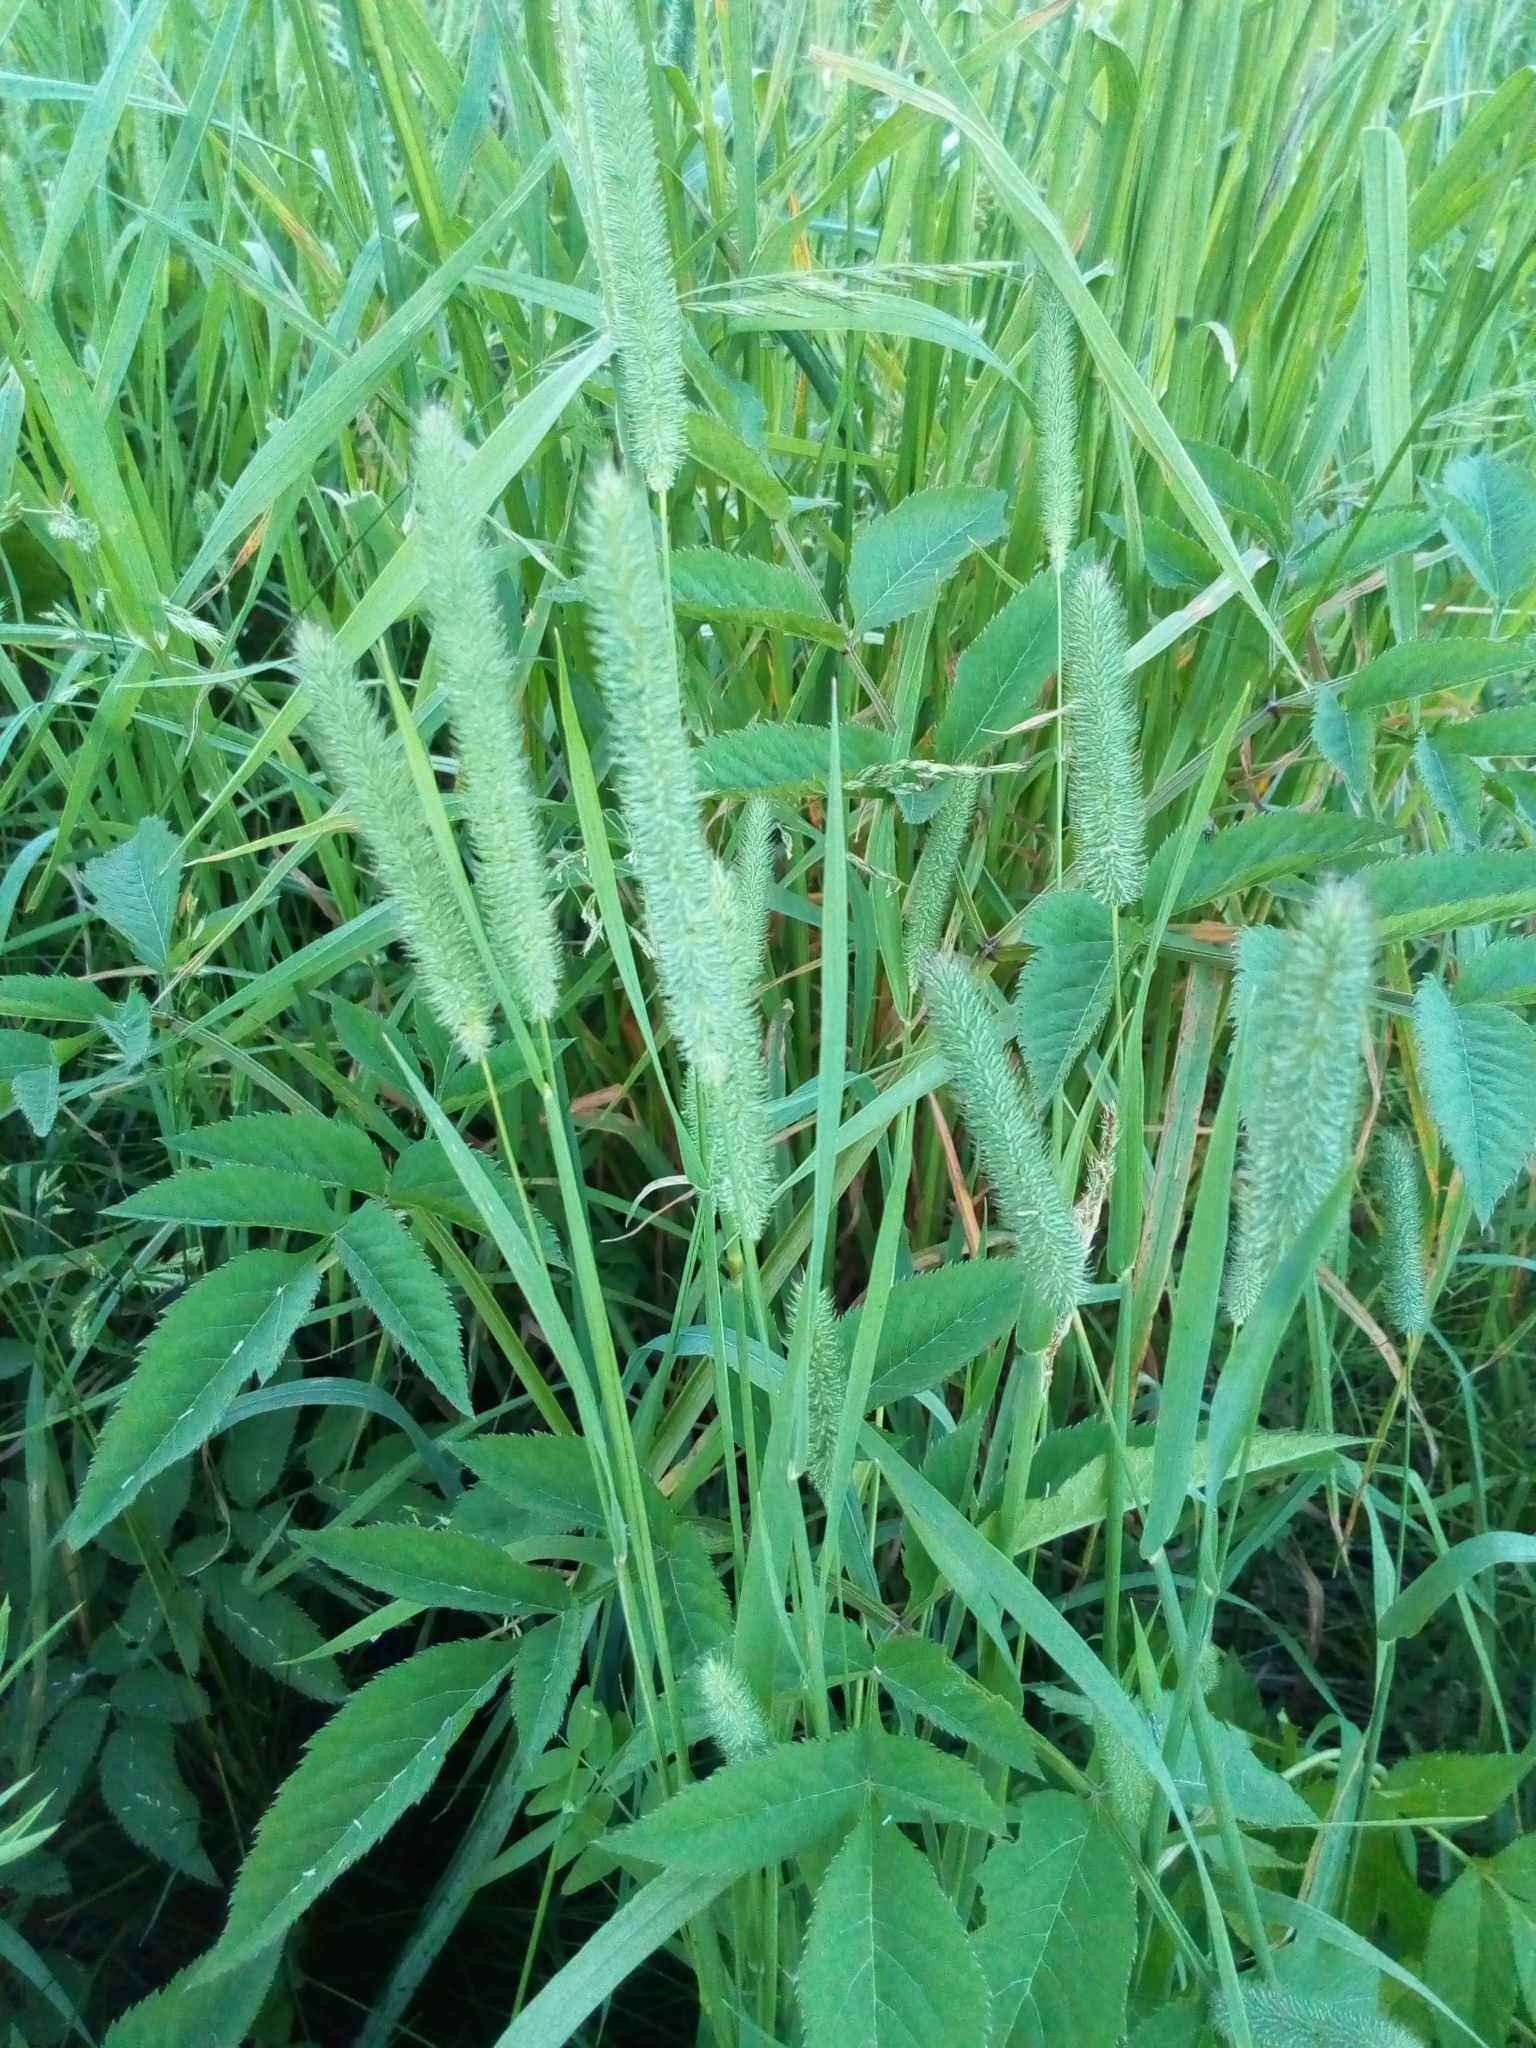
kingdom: Plantae
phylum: Tracheophyta
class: Liliopsida
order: Poales
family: Poaceae
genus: Phleum
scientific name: Phleum pratense
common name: Timothy grass
